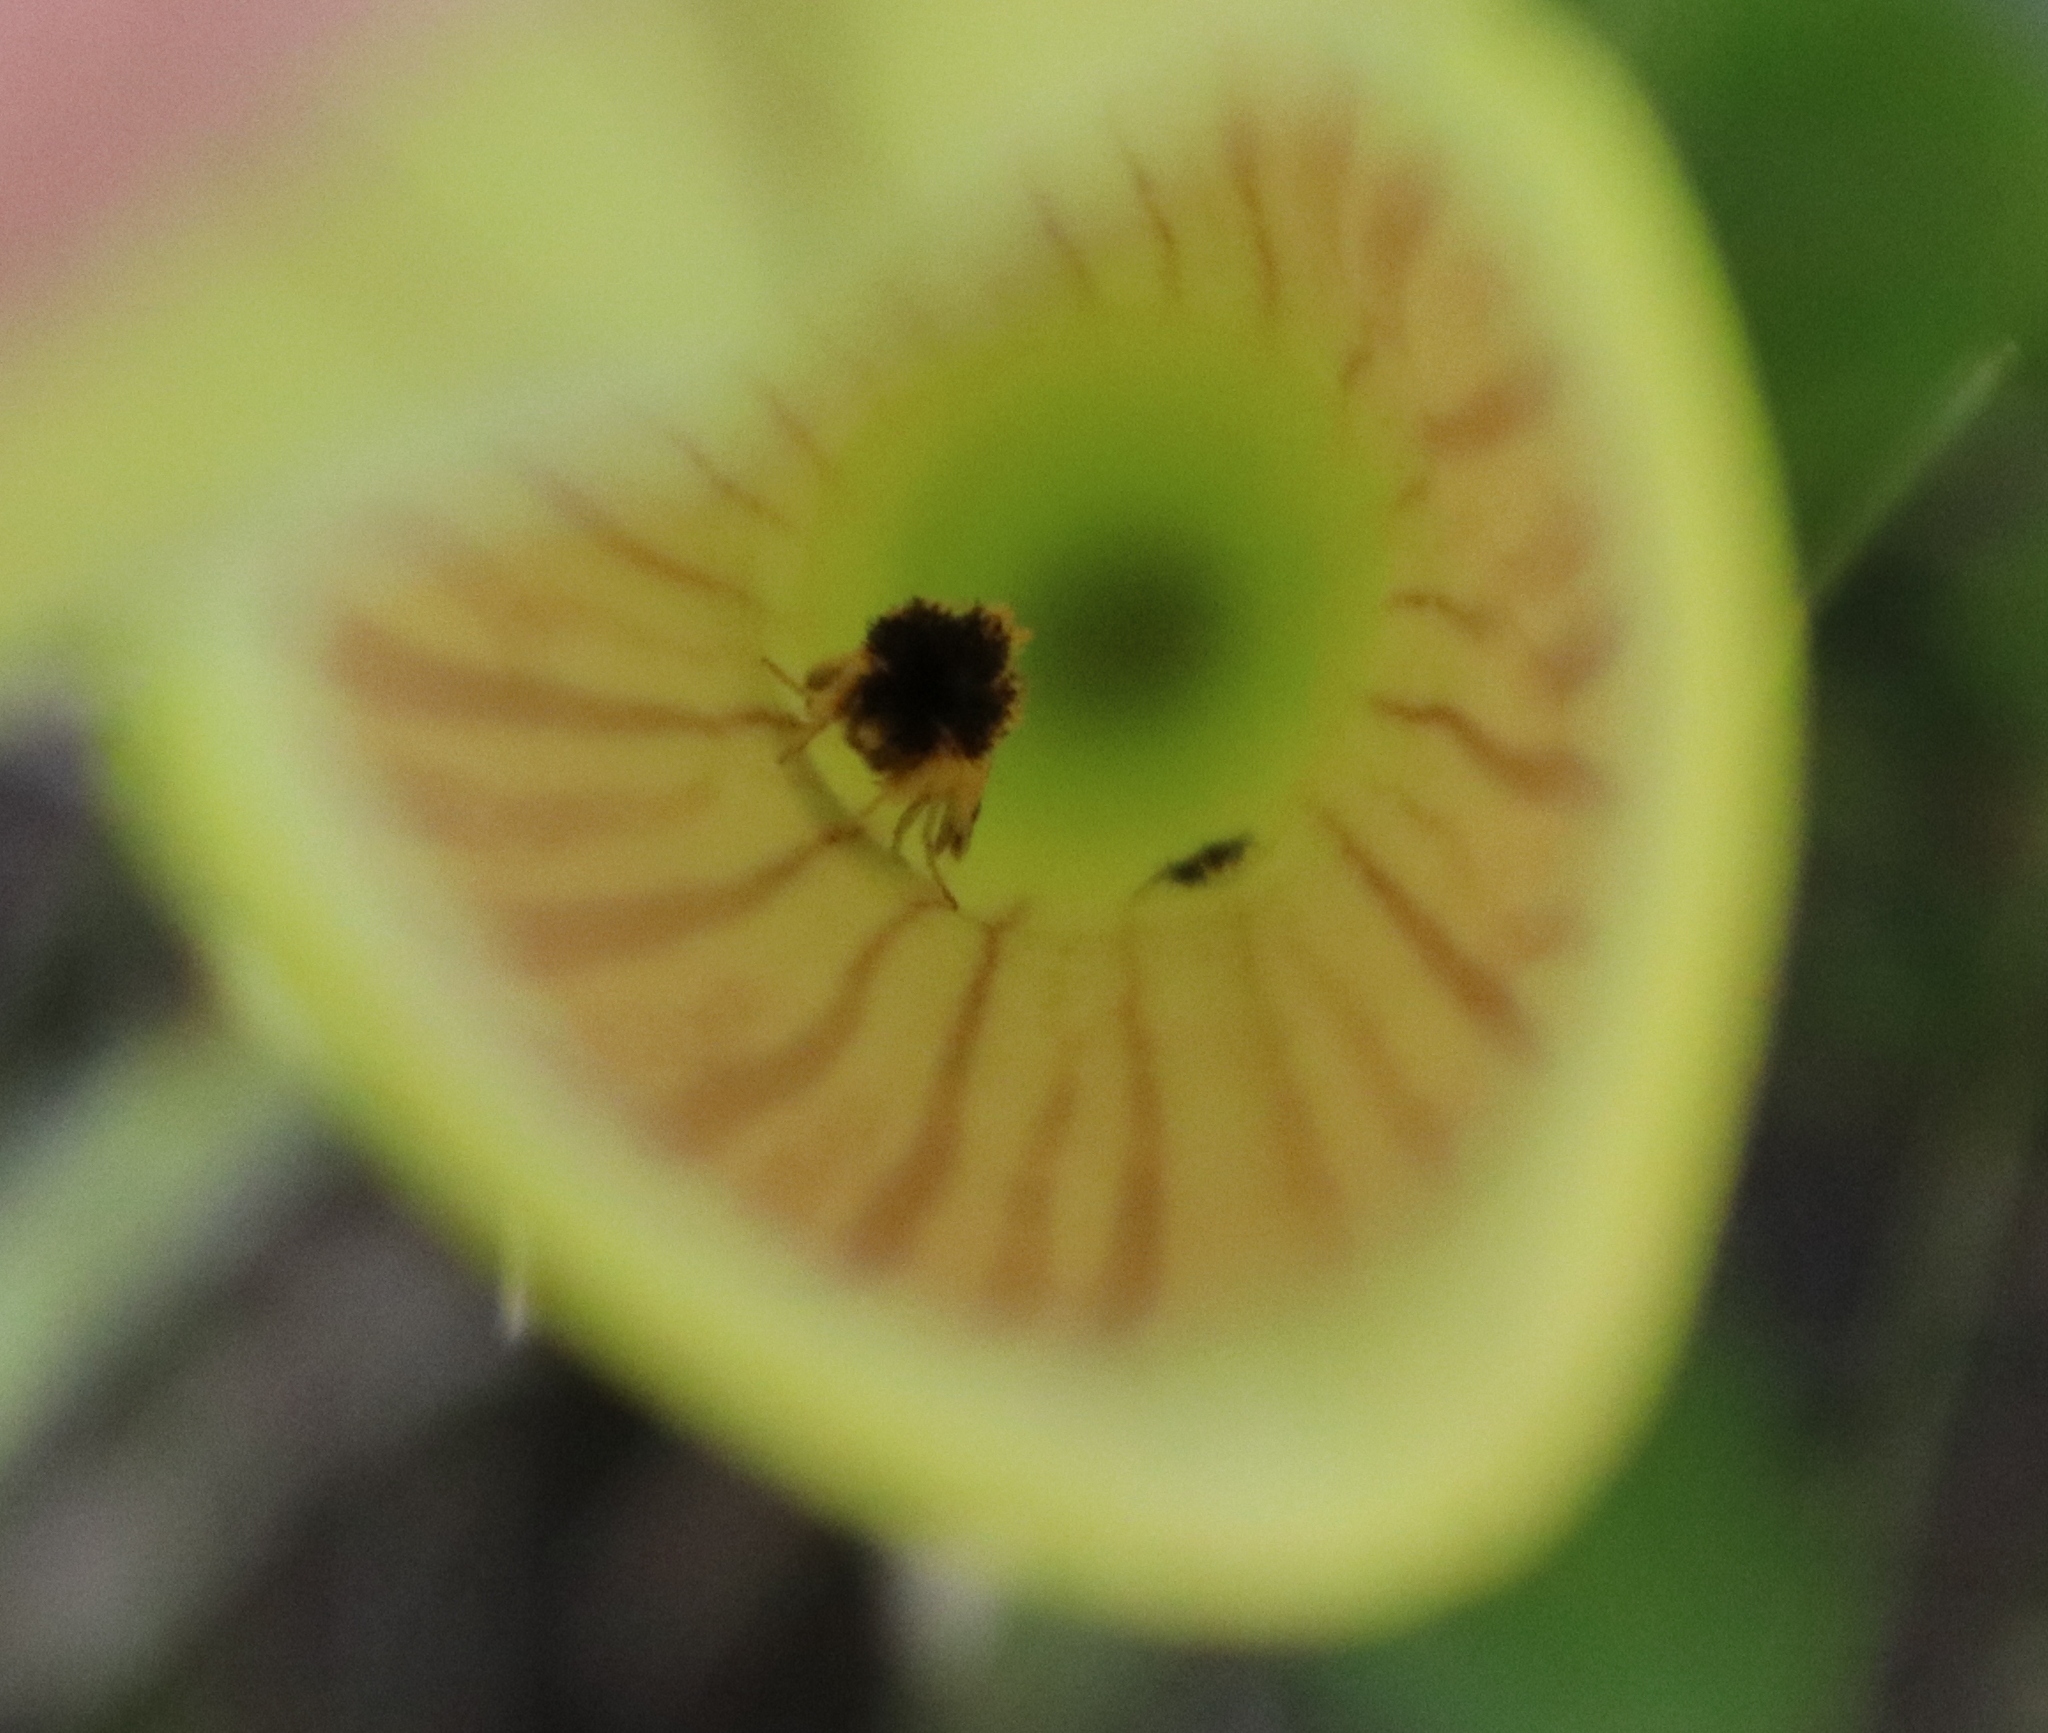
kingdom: Animalia
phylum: Arthropoda
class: Insecta
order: Lepidoptera
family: Noctuidae
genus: Exyra
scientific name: Exyra semicrocea
